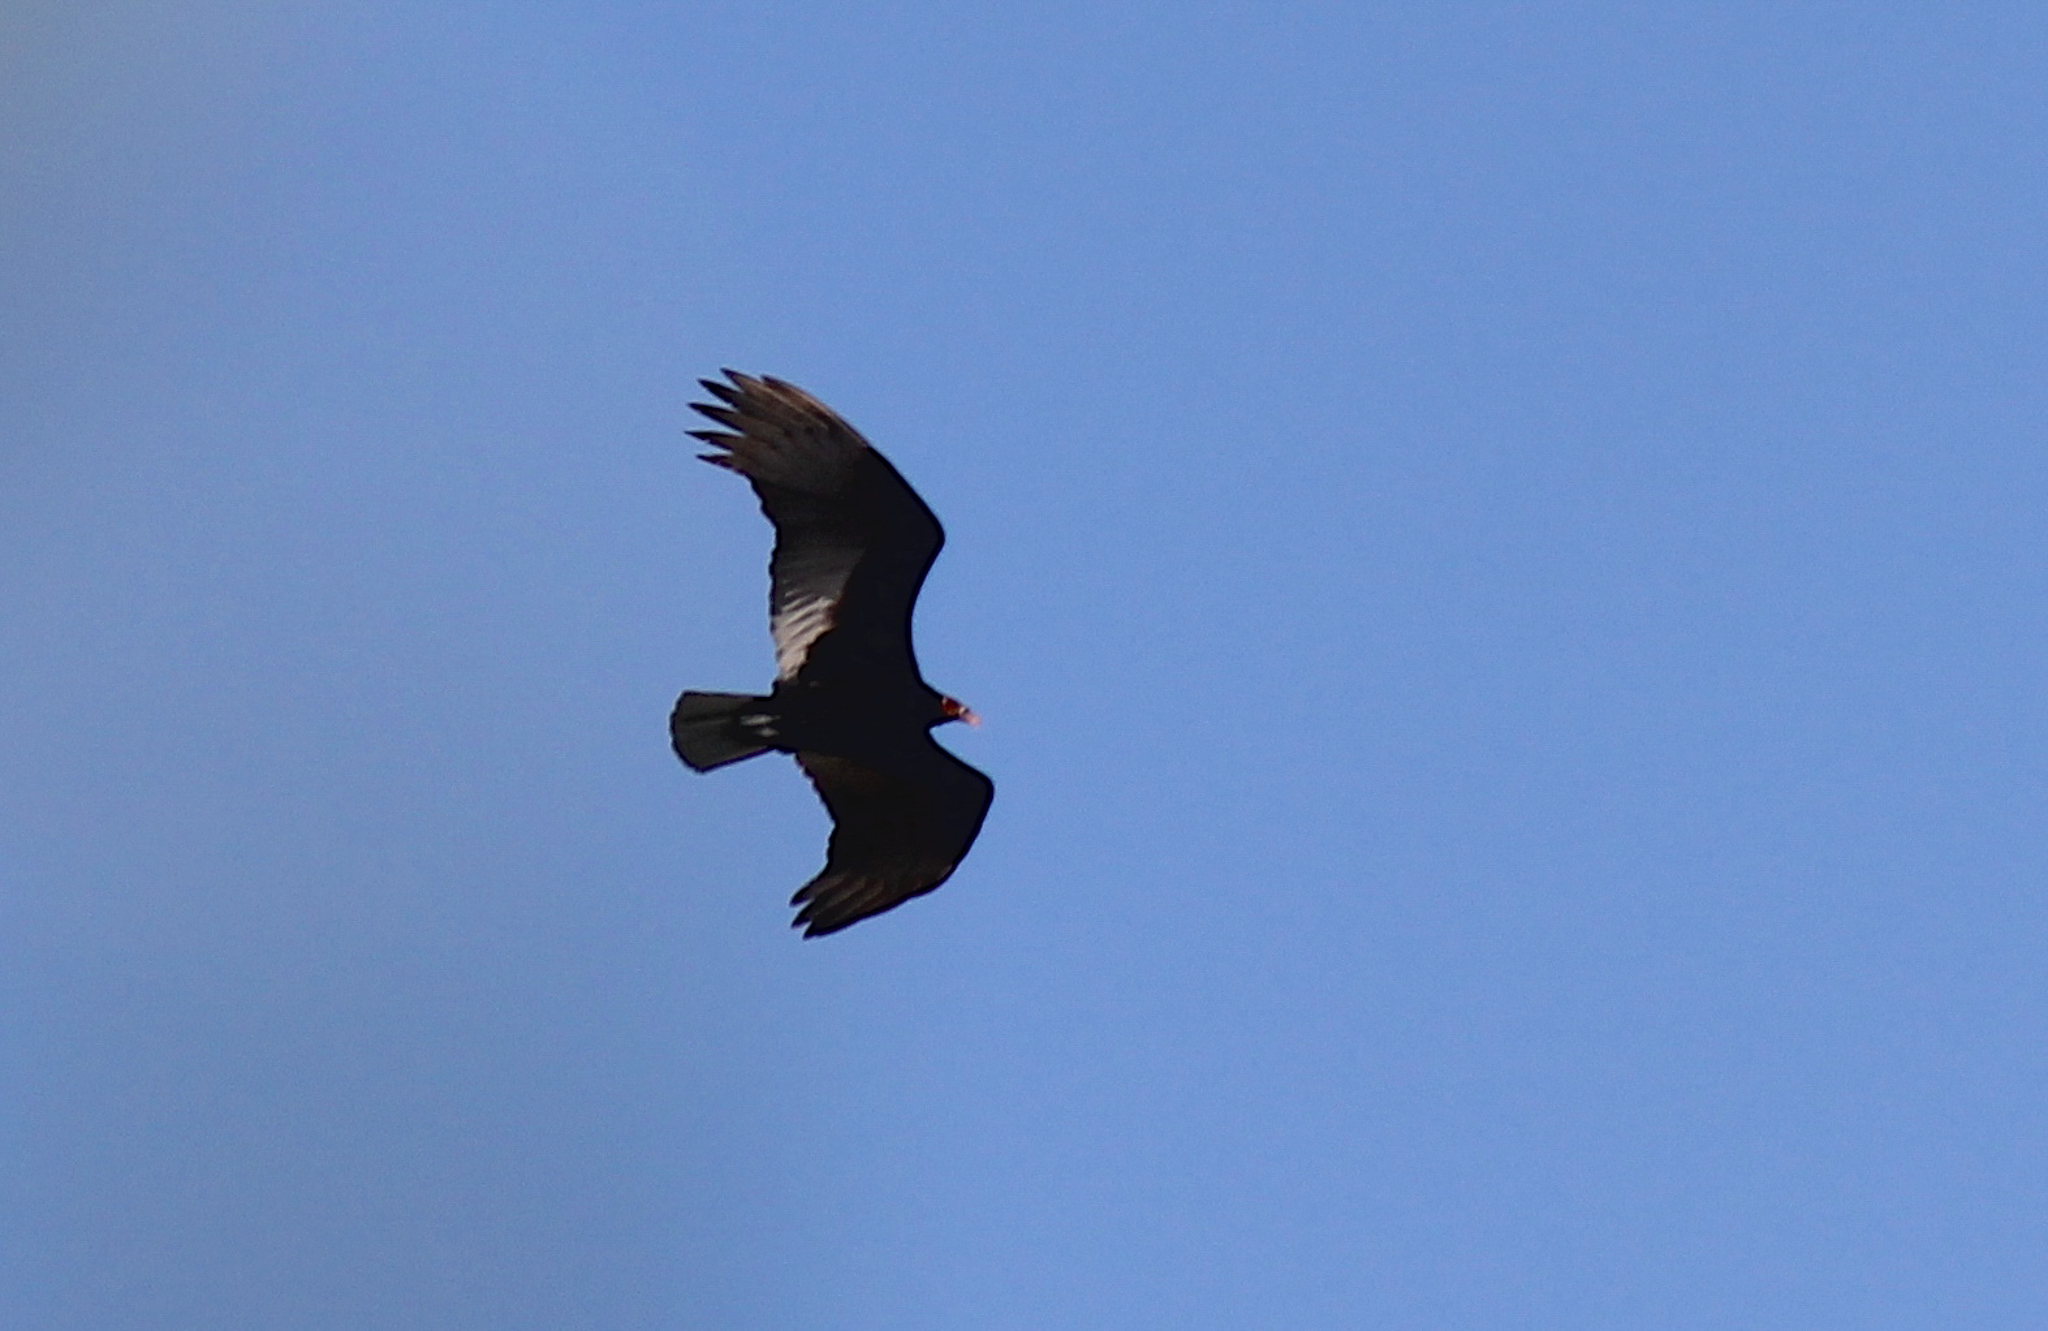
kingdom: Animalia
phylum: Chordata
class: Aves
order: Accipitriformes
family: Cathartidae
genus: Cathartes
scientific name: Cathartes aura
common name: Turkey vulture
